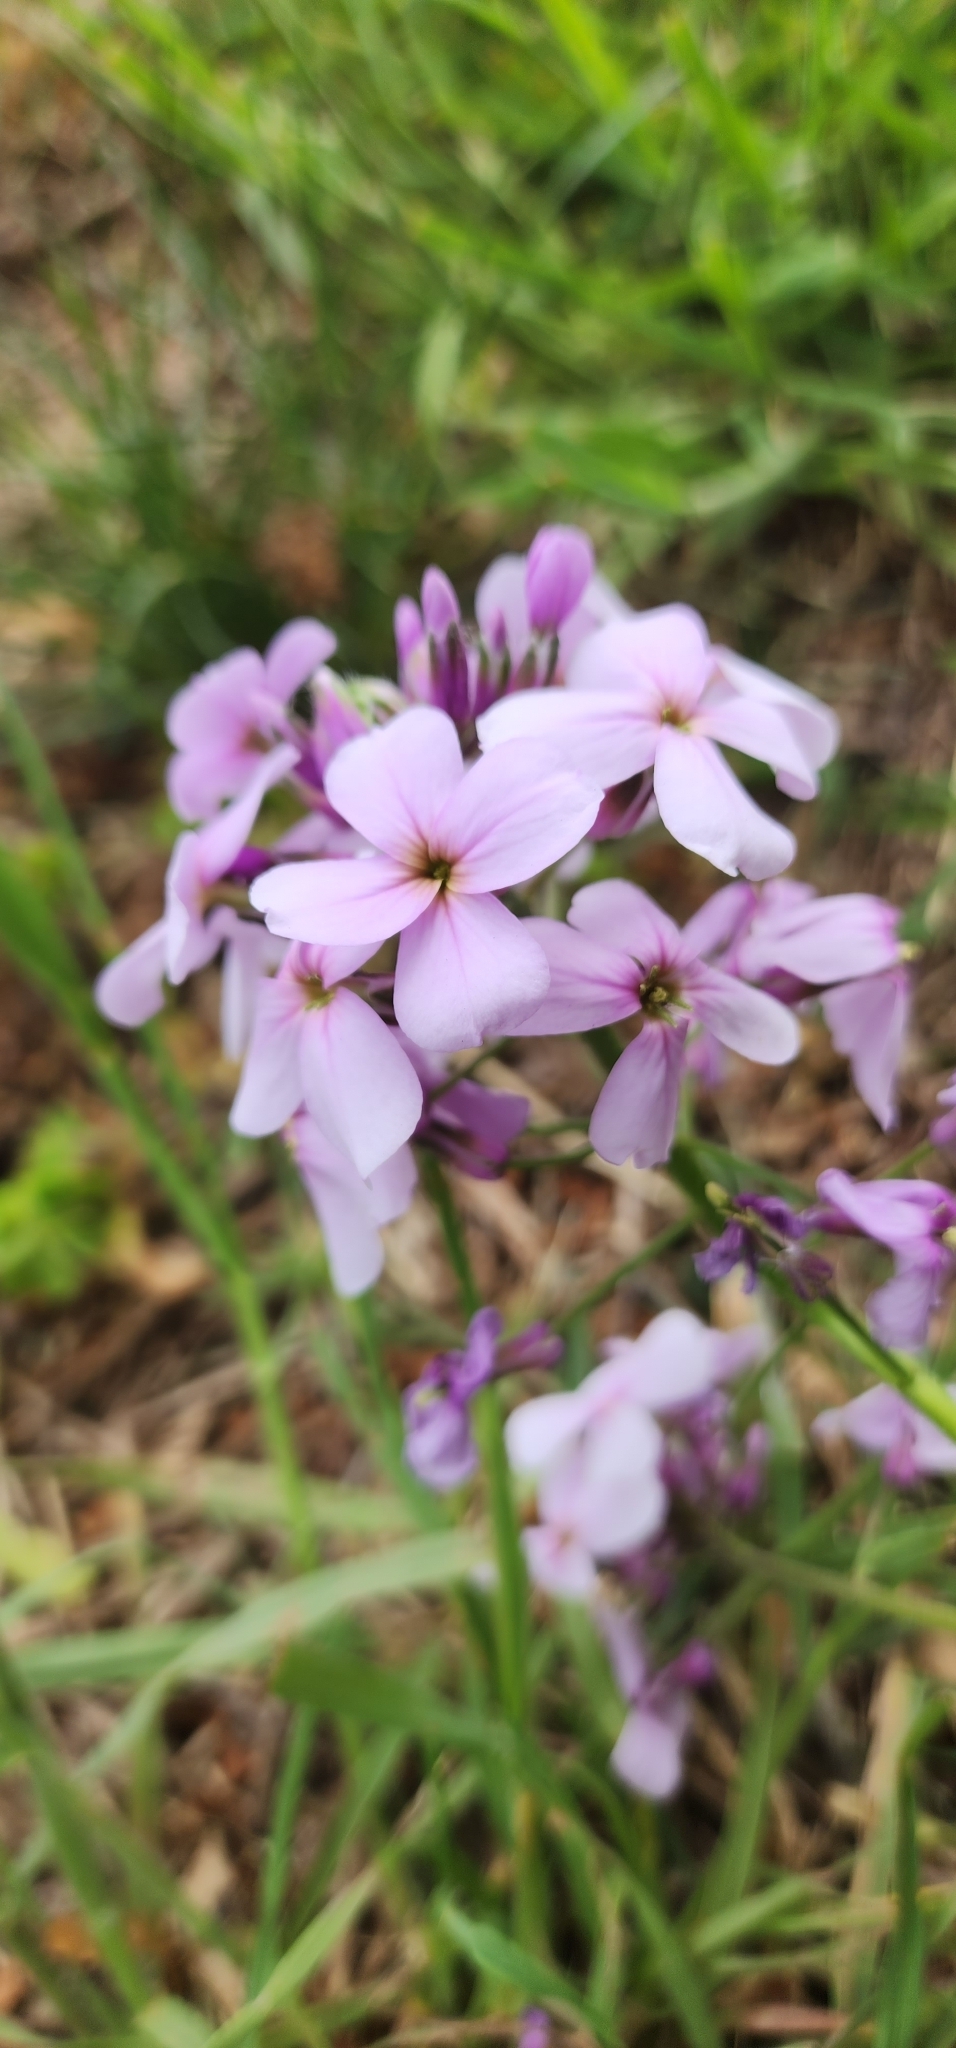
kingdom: Plantae
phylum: Tracheophyta
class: Magnoliopsida
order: Brassicales
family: Brassicaceae
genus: Hesperis
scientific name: Hesperis matronalis
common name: Dame's-violet
